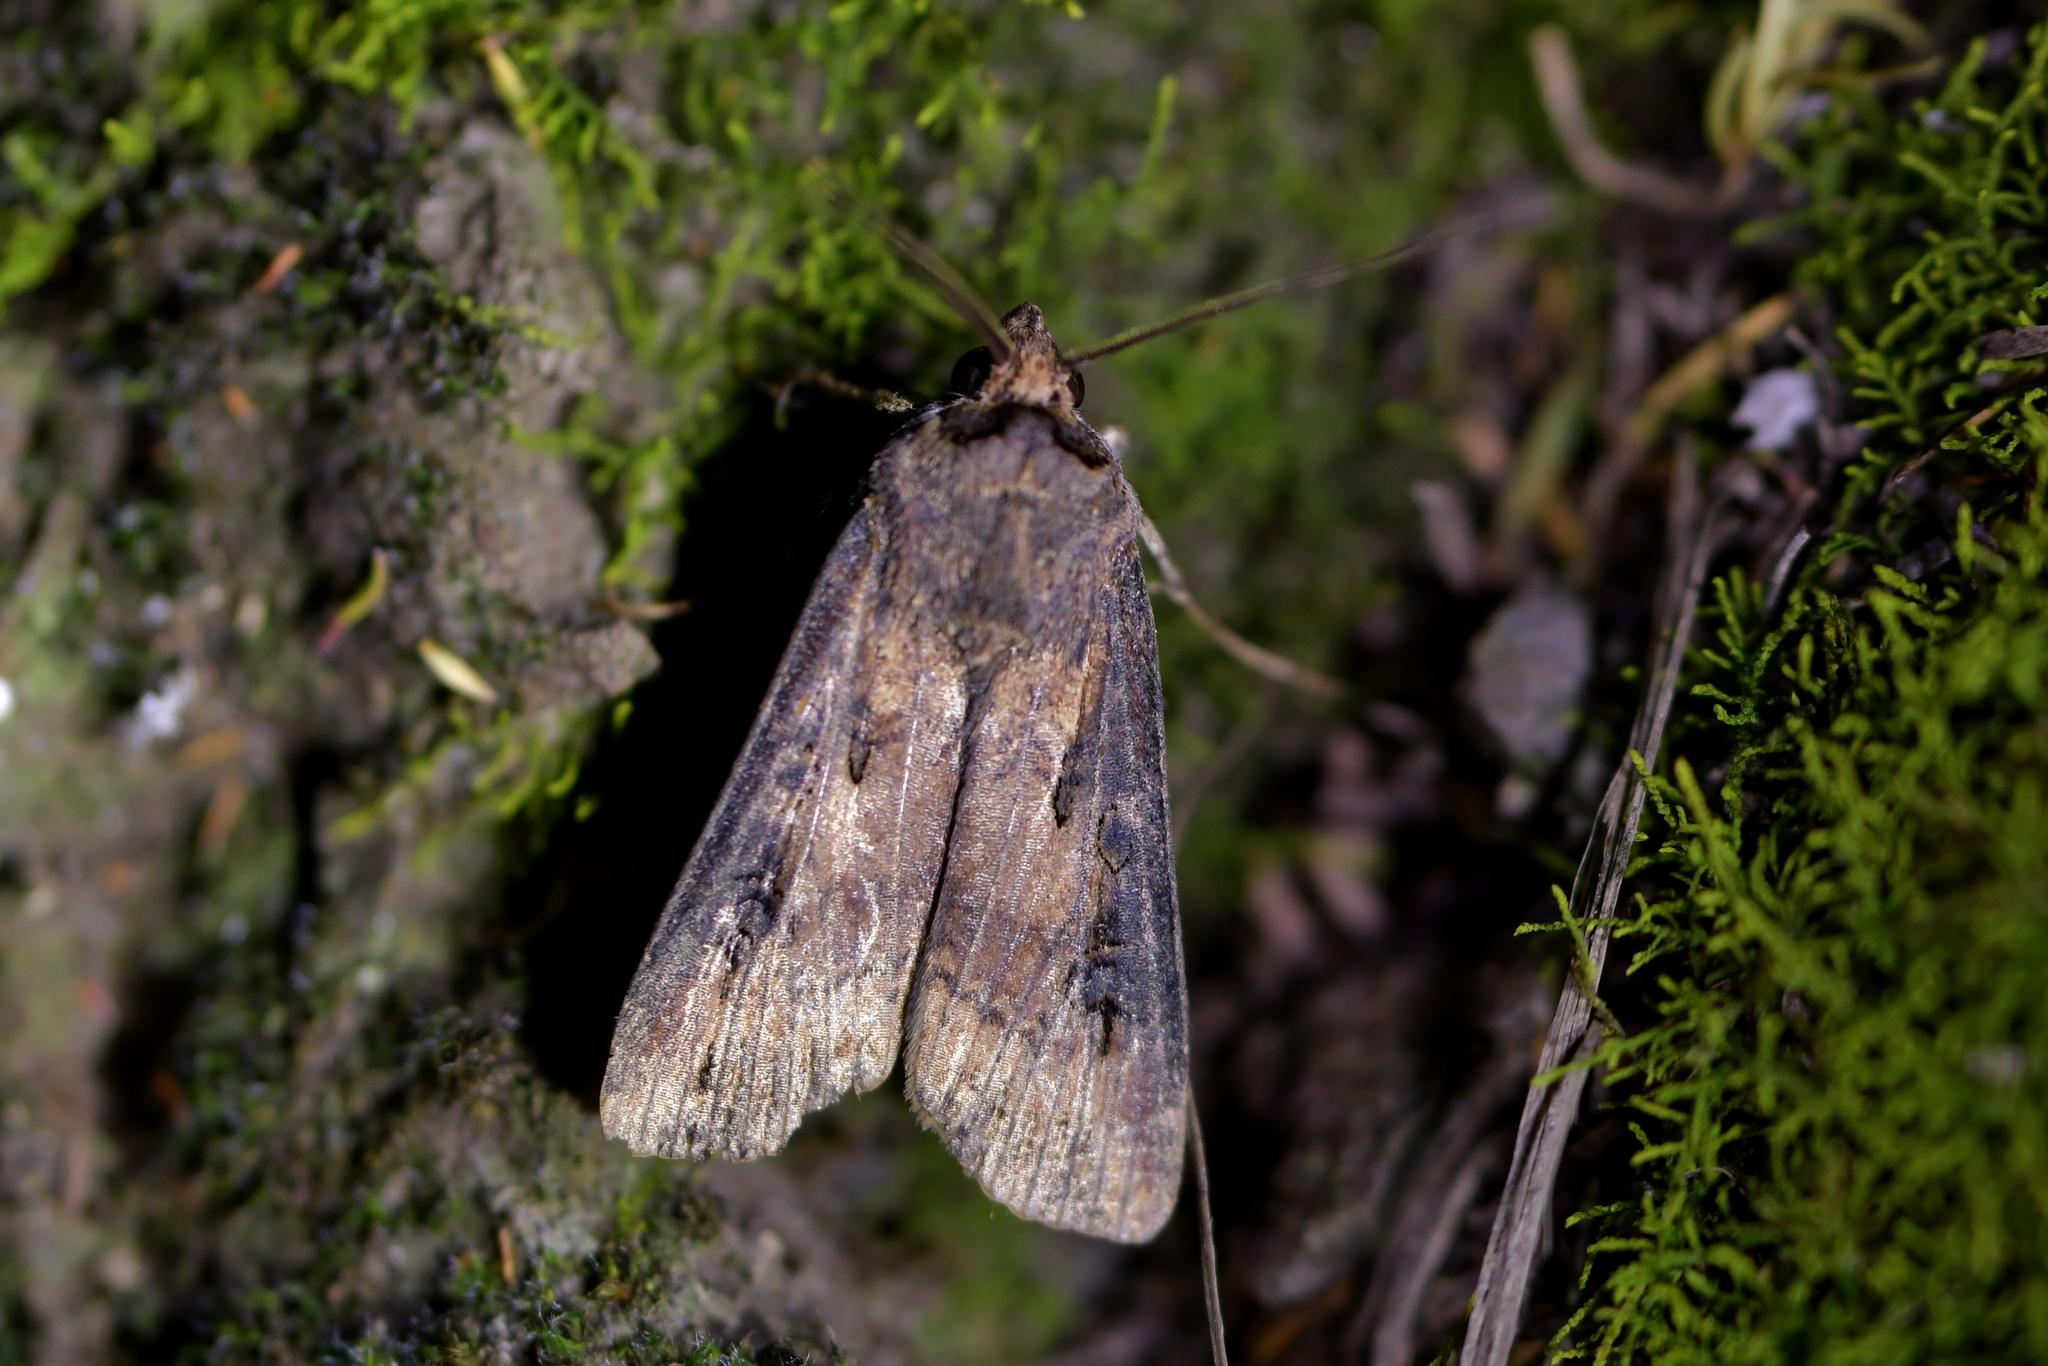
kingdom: Animalia
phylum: Arthropoda
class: Insecta
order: Lepidoptera
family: Noctuidae
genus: Agrotis
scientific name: Agrotis ipsilon
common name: Dark sword-grass
